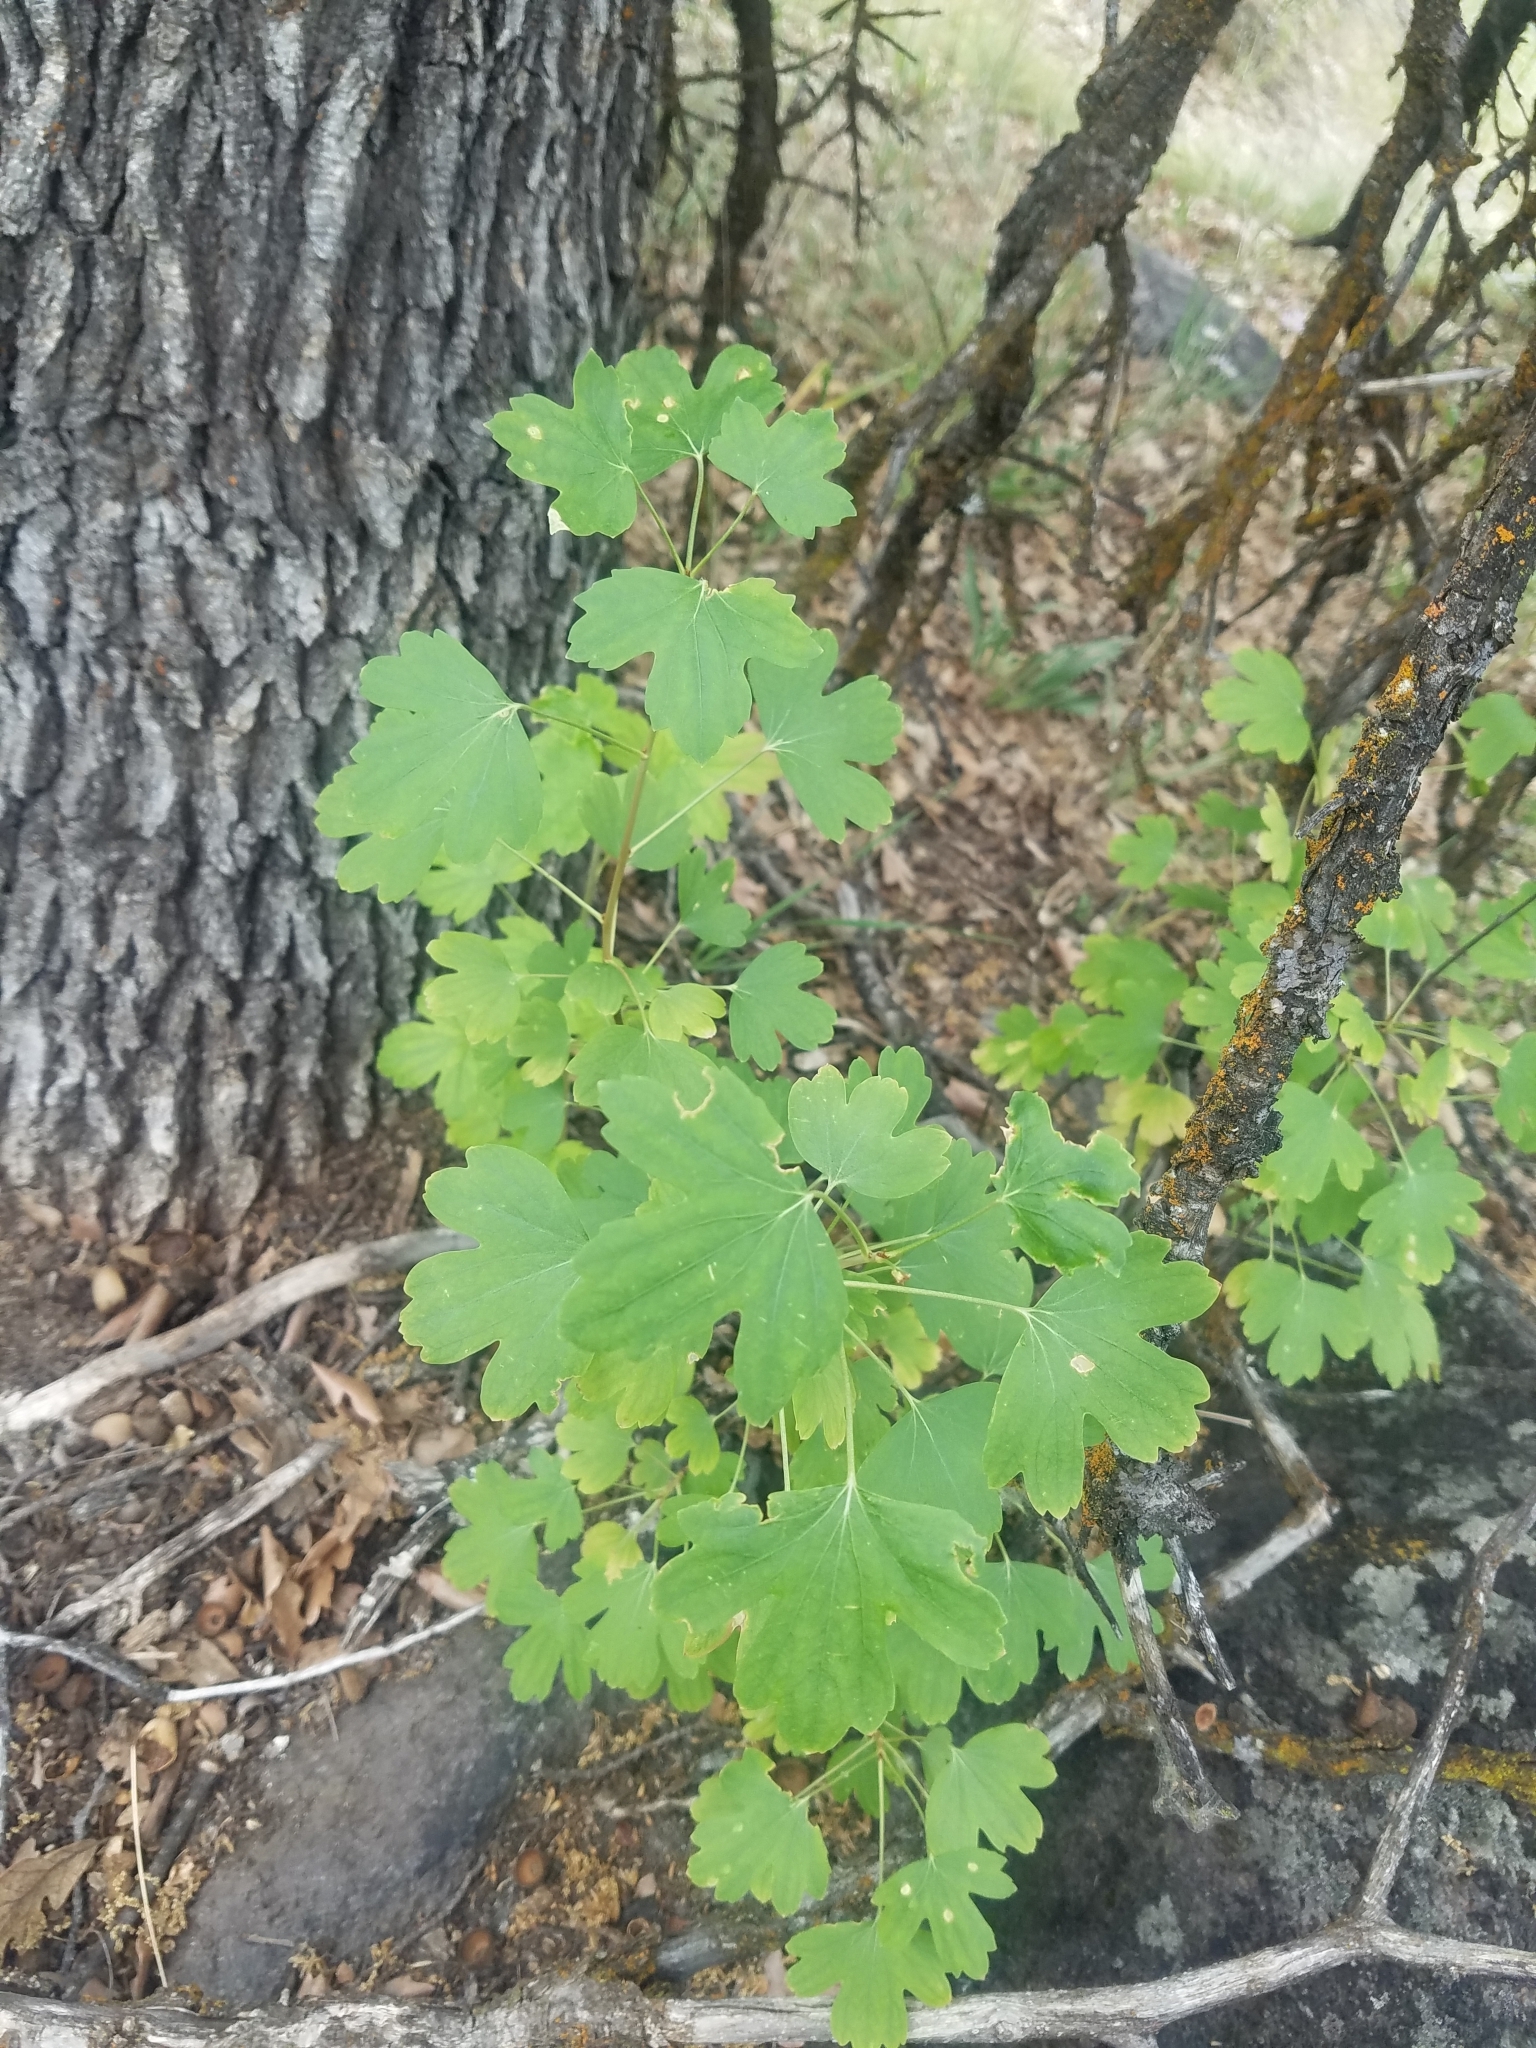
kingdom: Plantae
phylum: Tracheophyta
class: Magnoliopsida
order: Saxifragales
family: Grossulariaceae
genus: Ribes
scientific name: Ribes aureum
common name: Golden currant
